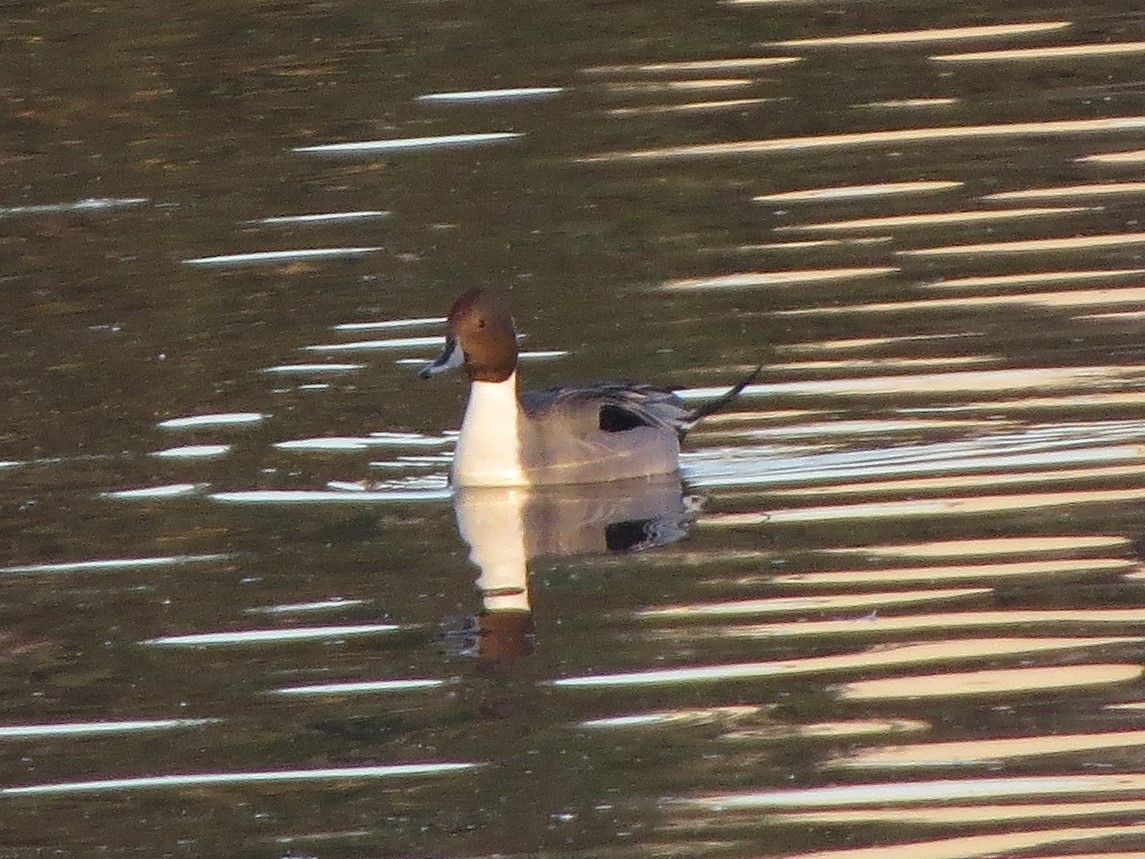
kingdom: Animalia
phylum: Chordata
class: Aves
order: Anseriformes
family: Anatidae
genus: Anas
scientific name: Anas acuta
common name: Northern pintail
